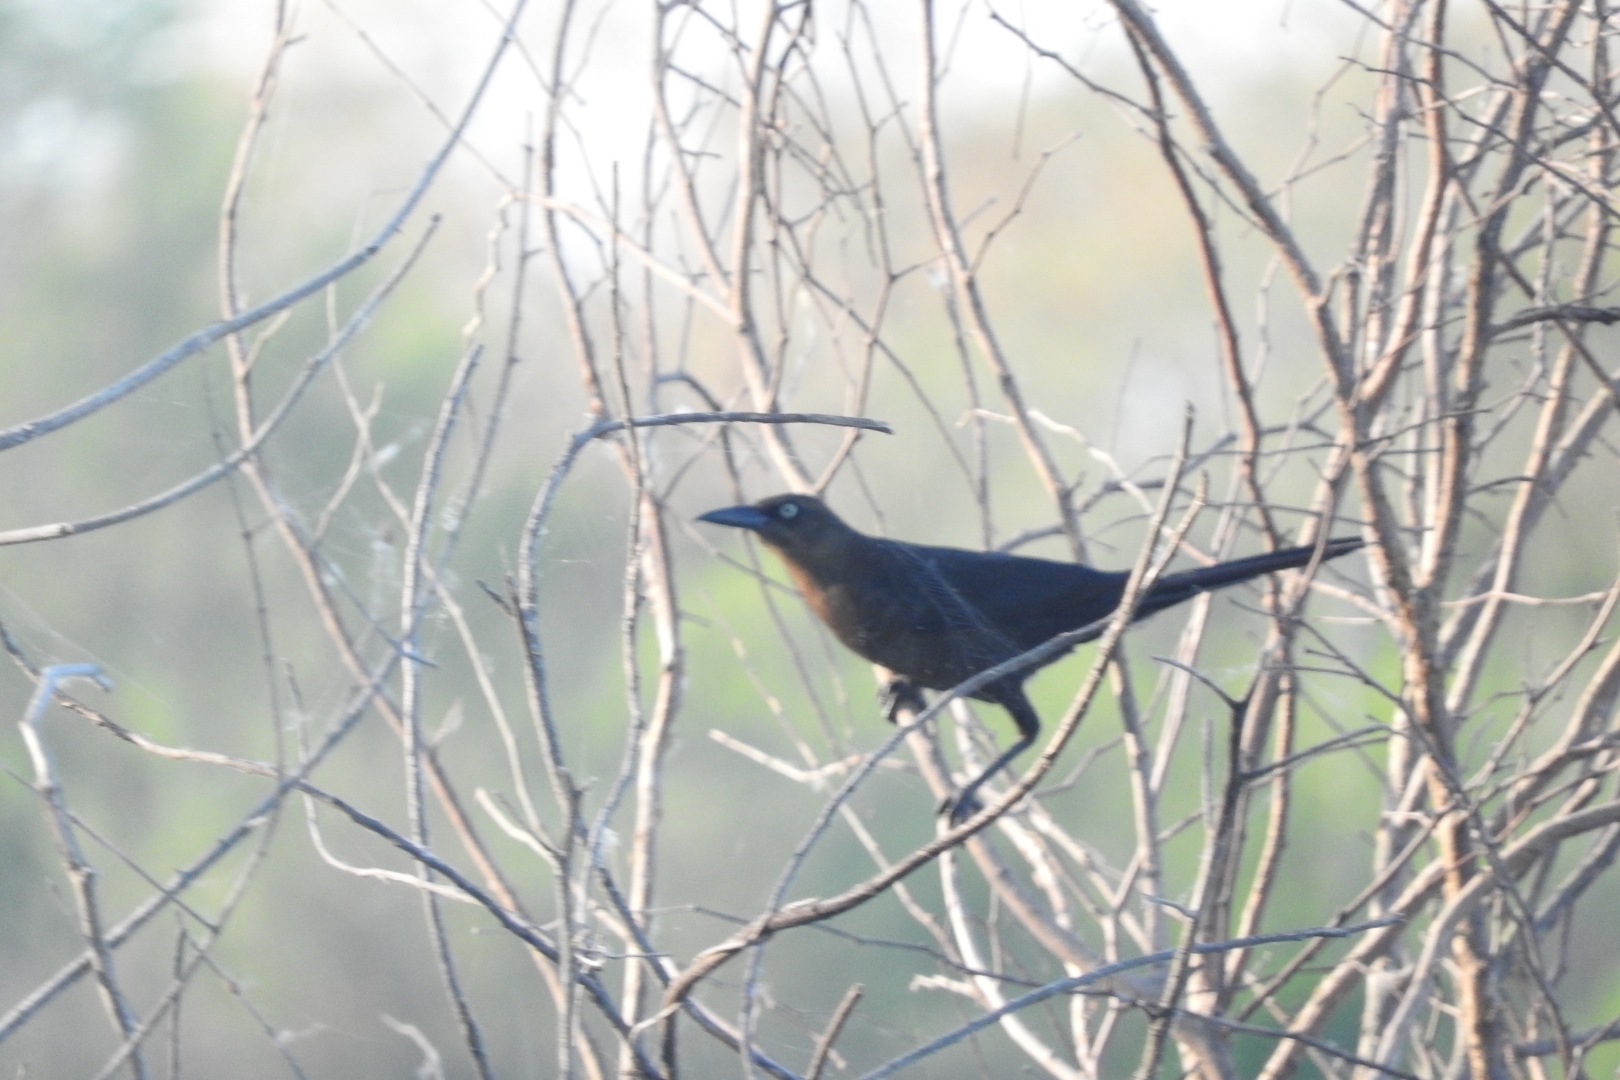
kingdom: Animalia
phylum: Chordata
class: Aves
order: Passeriformes
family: Icteridae
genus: Quiscalus
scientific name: Quiscalus mexicanus
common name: Great-tailed grackle
